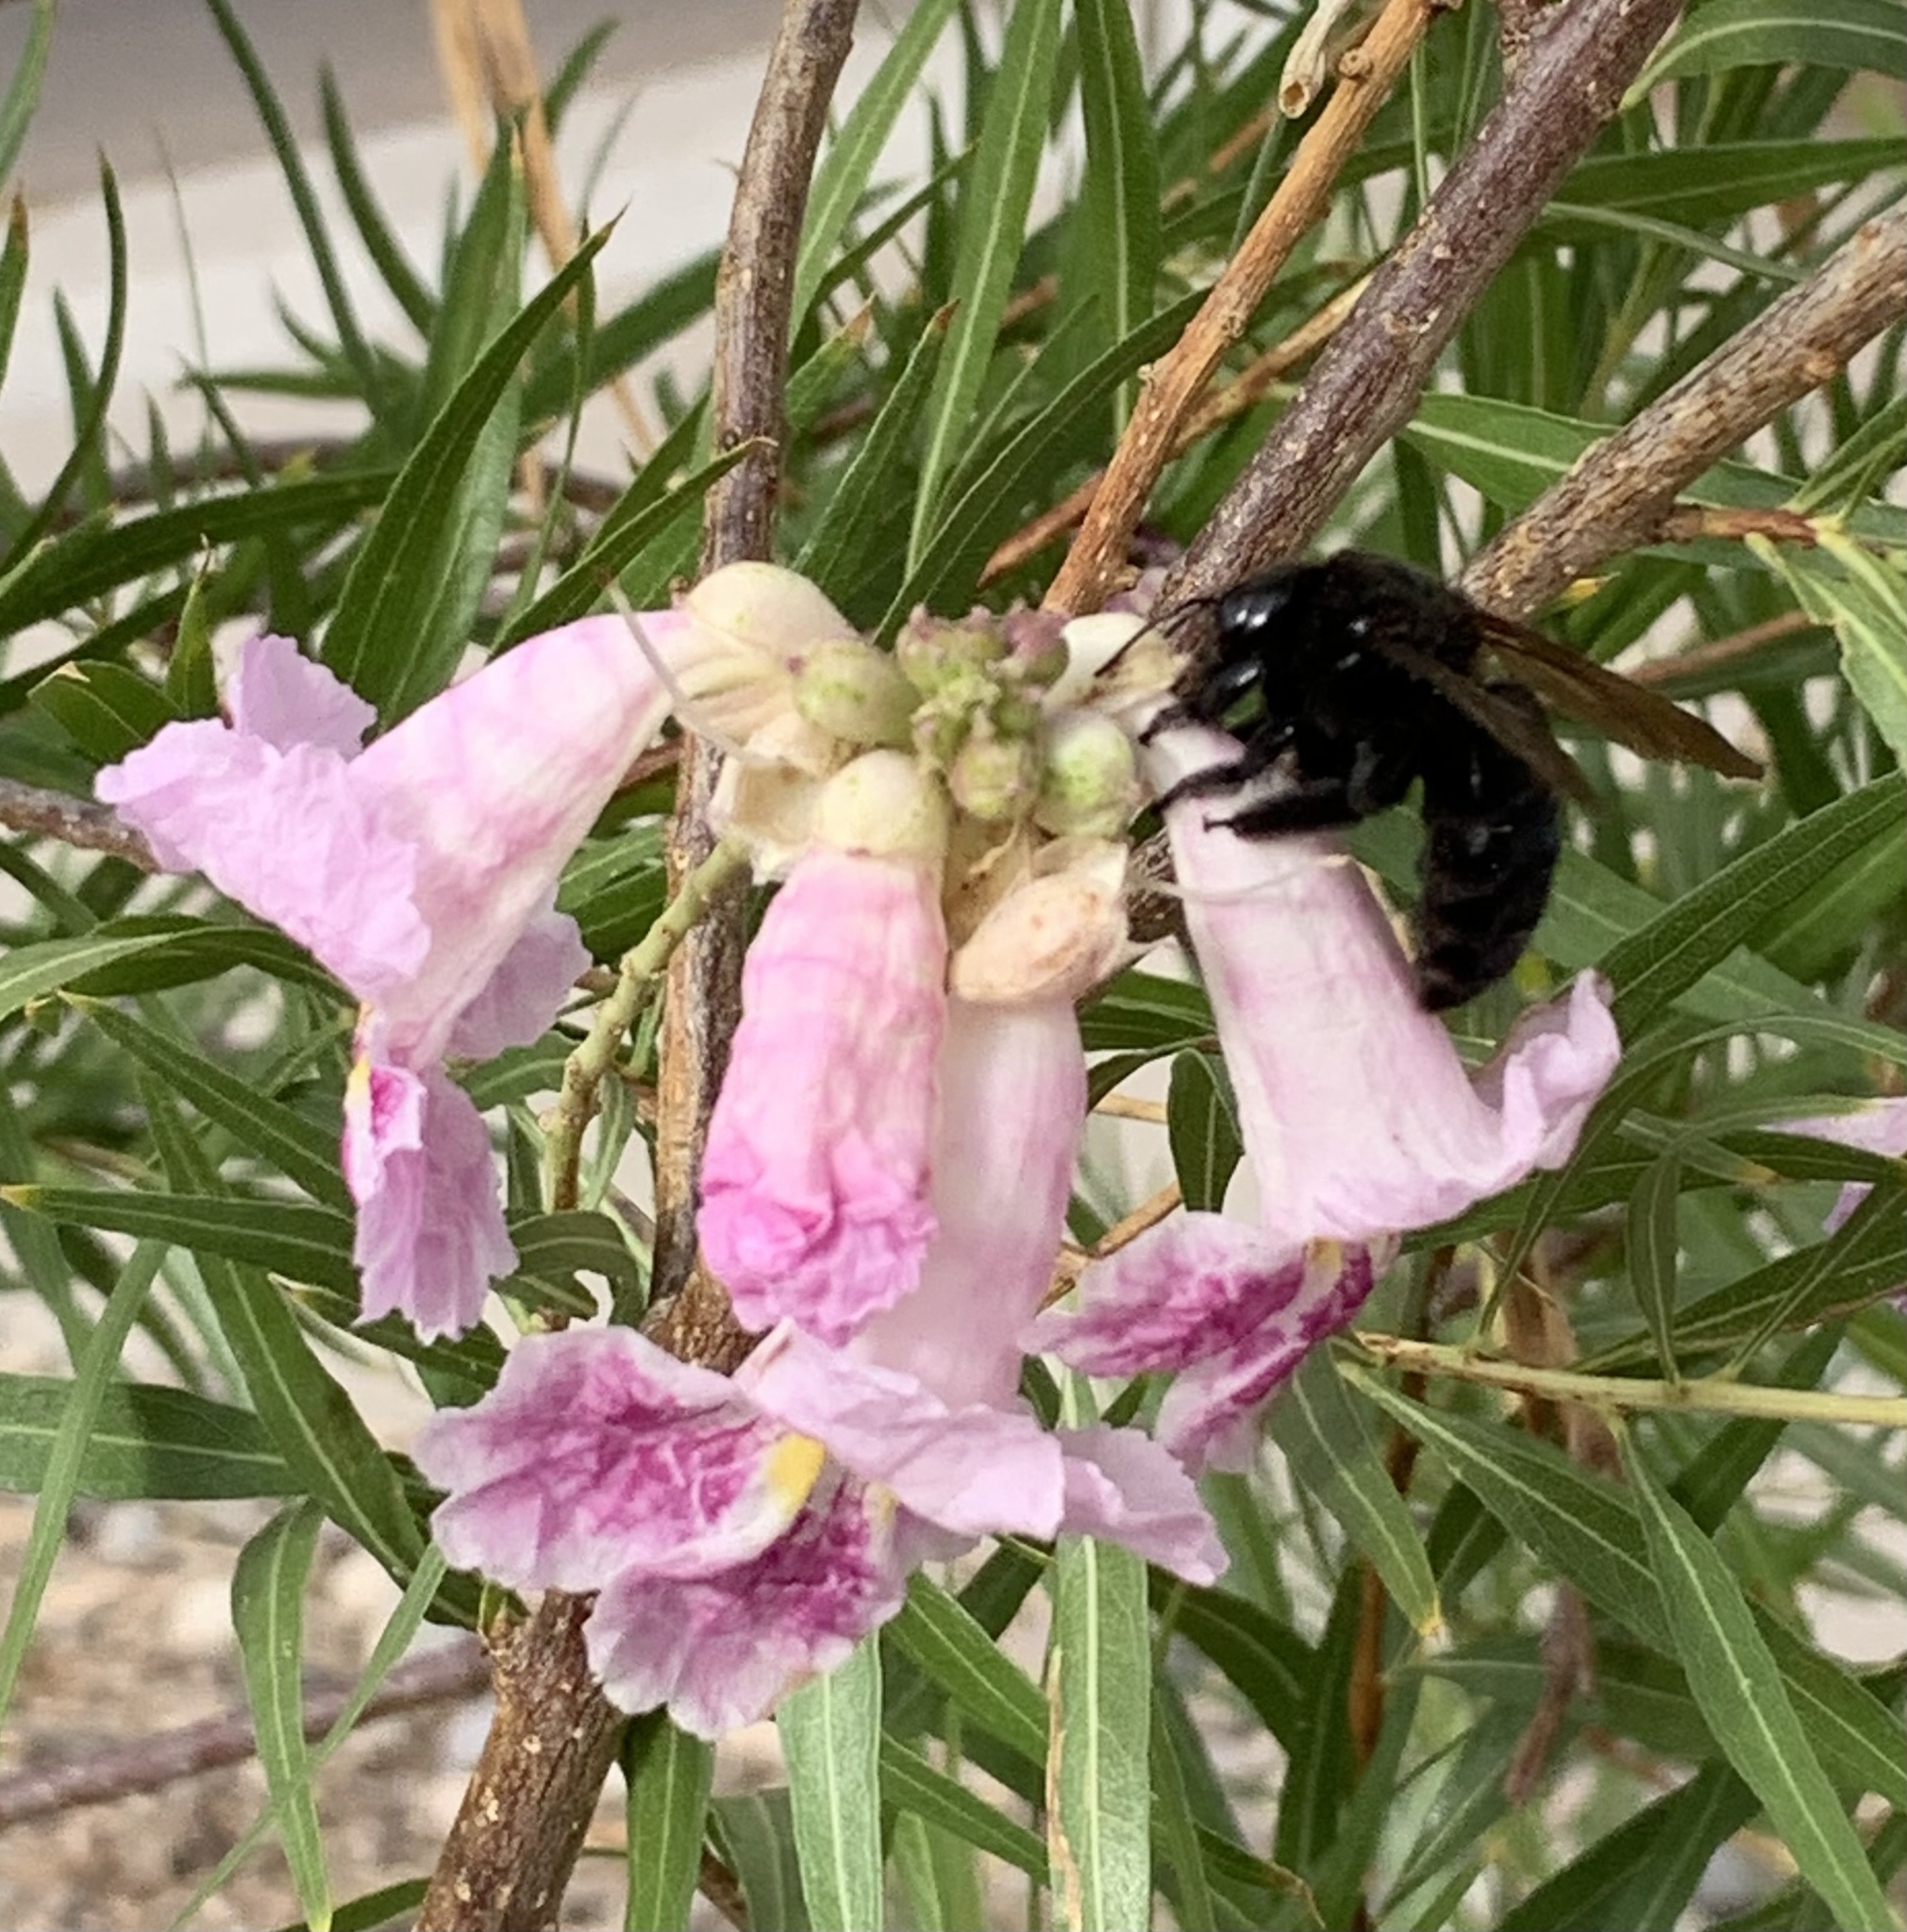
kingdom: Animalia
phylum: Arthropoda
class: Insecta
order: Hymenoptera
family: Apidae
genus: Xylocopa
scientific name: Xylocopa sonorina
